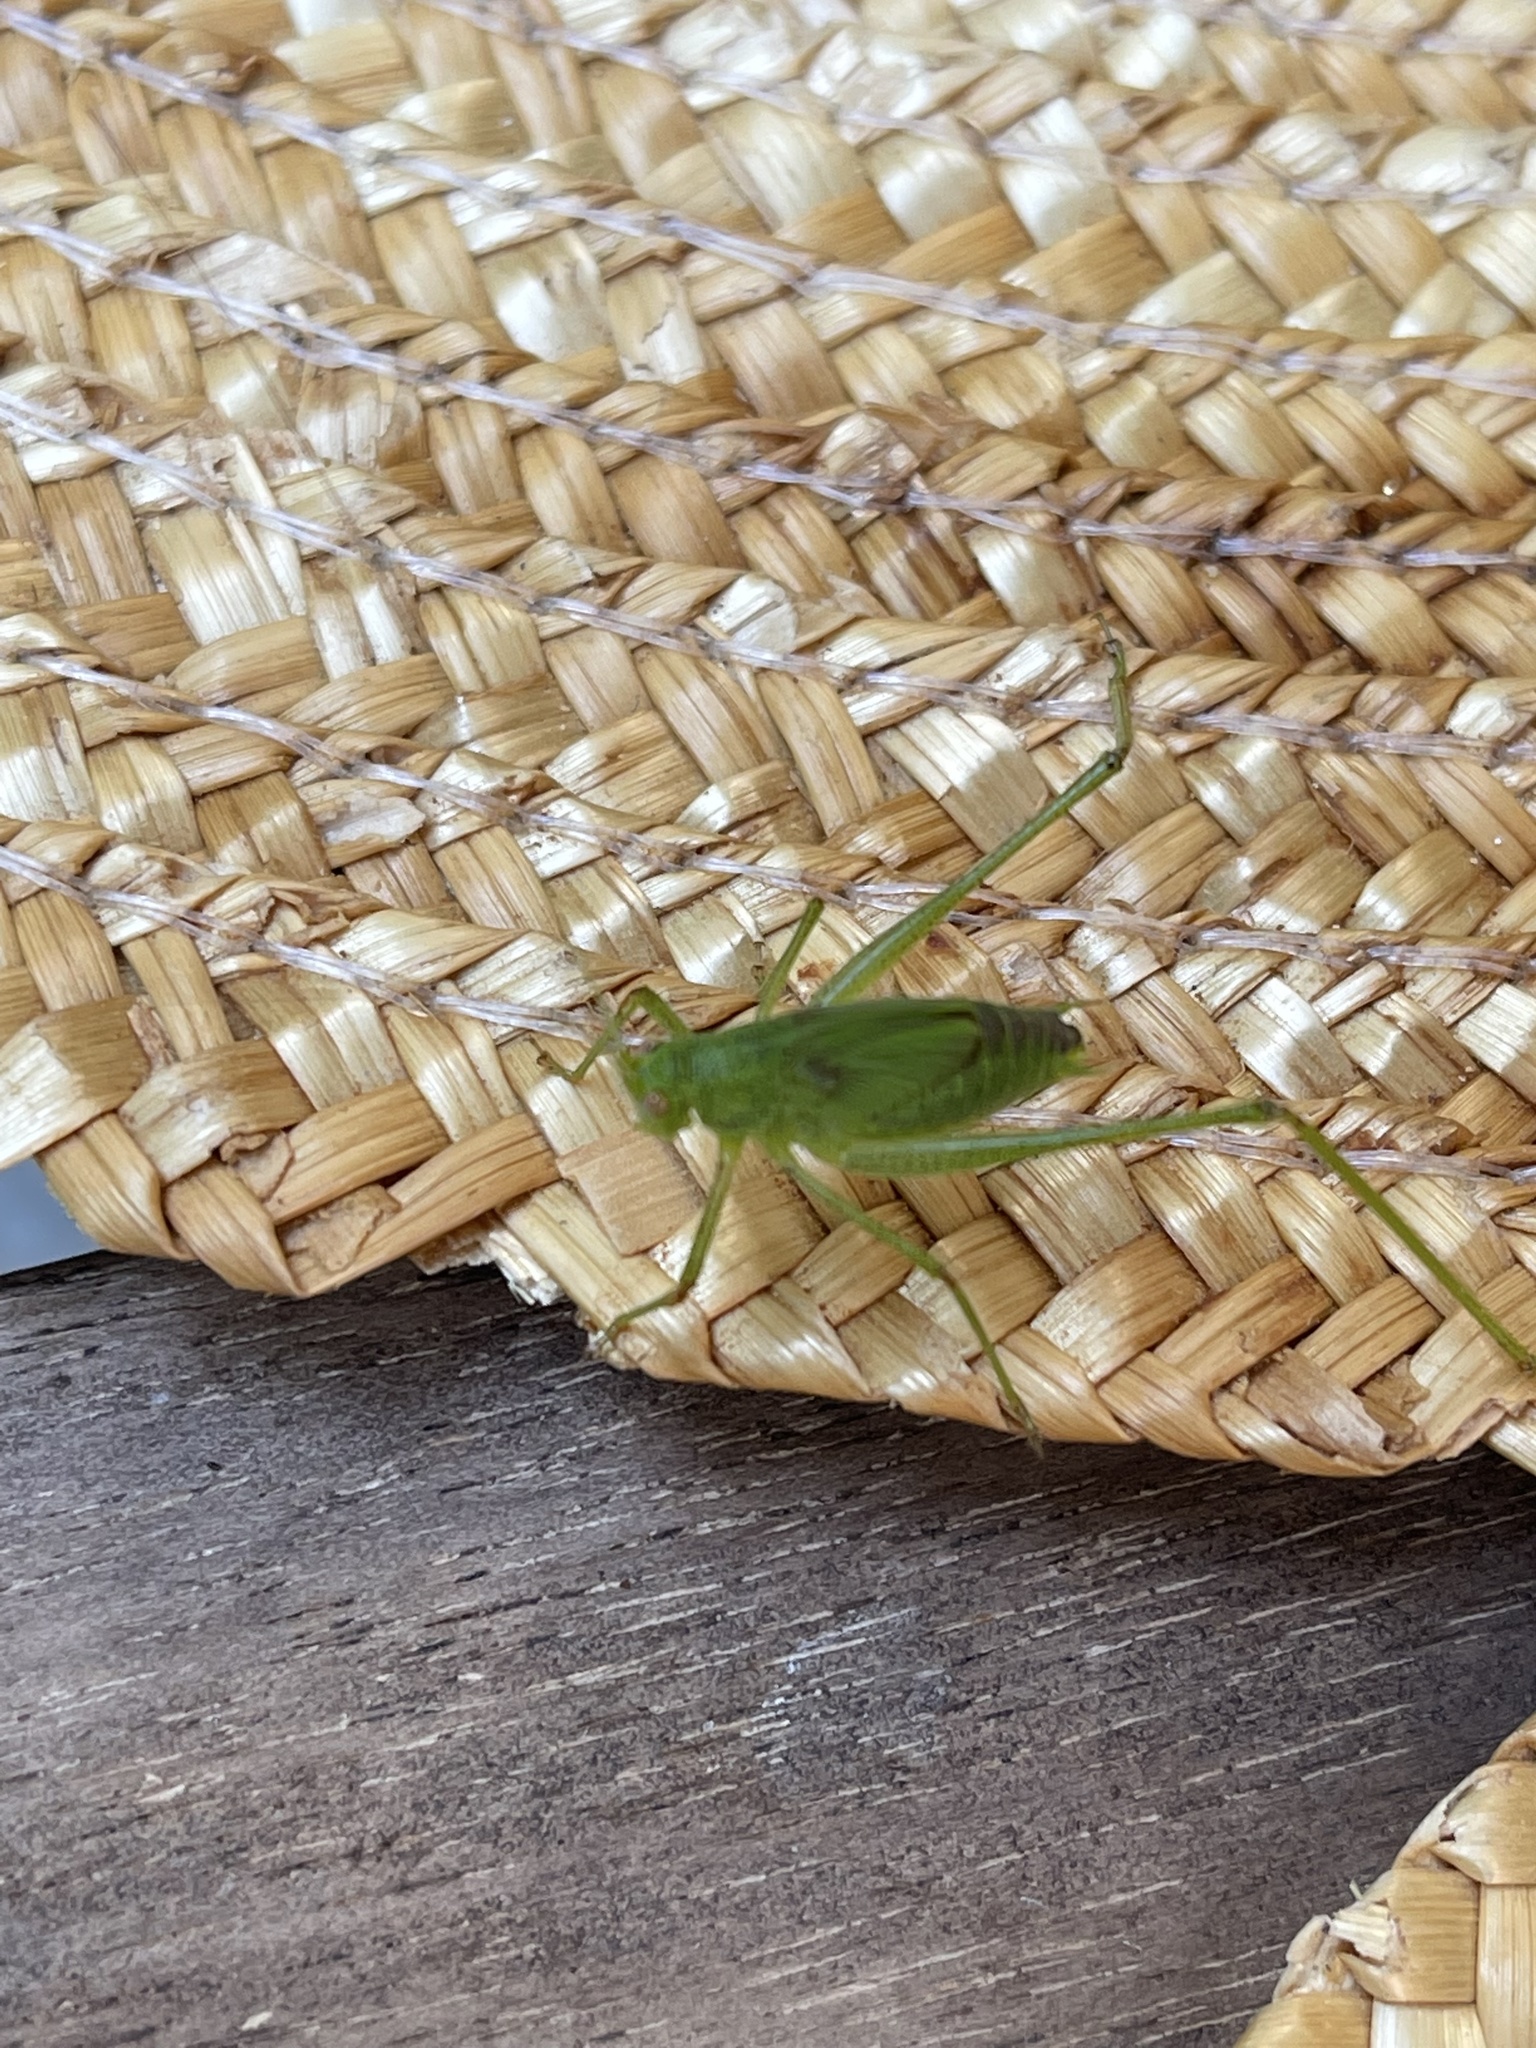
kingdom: Animalia
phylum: Arthropoda
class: Insecta
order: Orthoptera
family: Tettigoniidae
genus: Phaneroptera
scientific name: Phaneroptera nana
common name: Southern sickle bush-cricket
